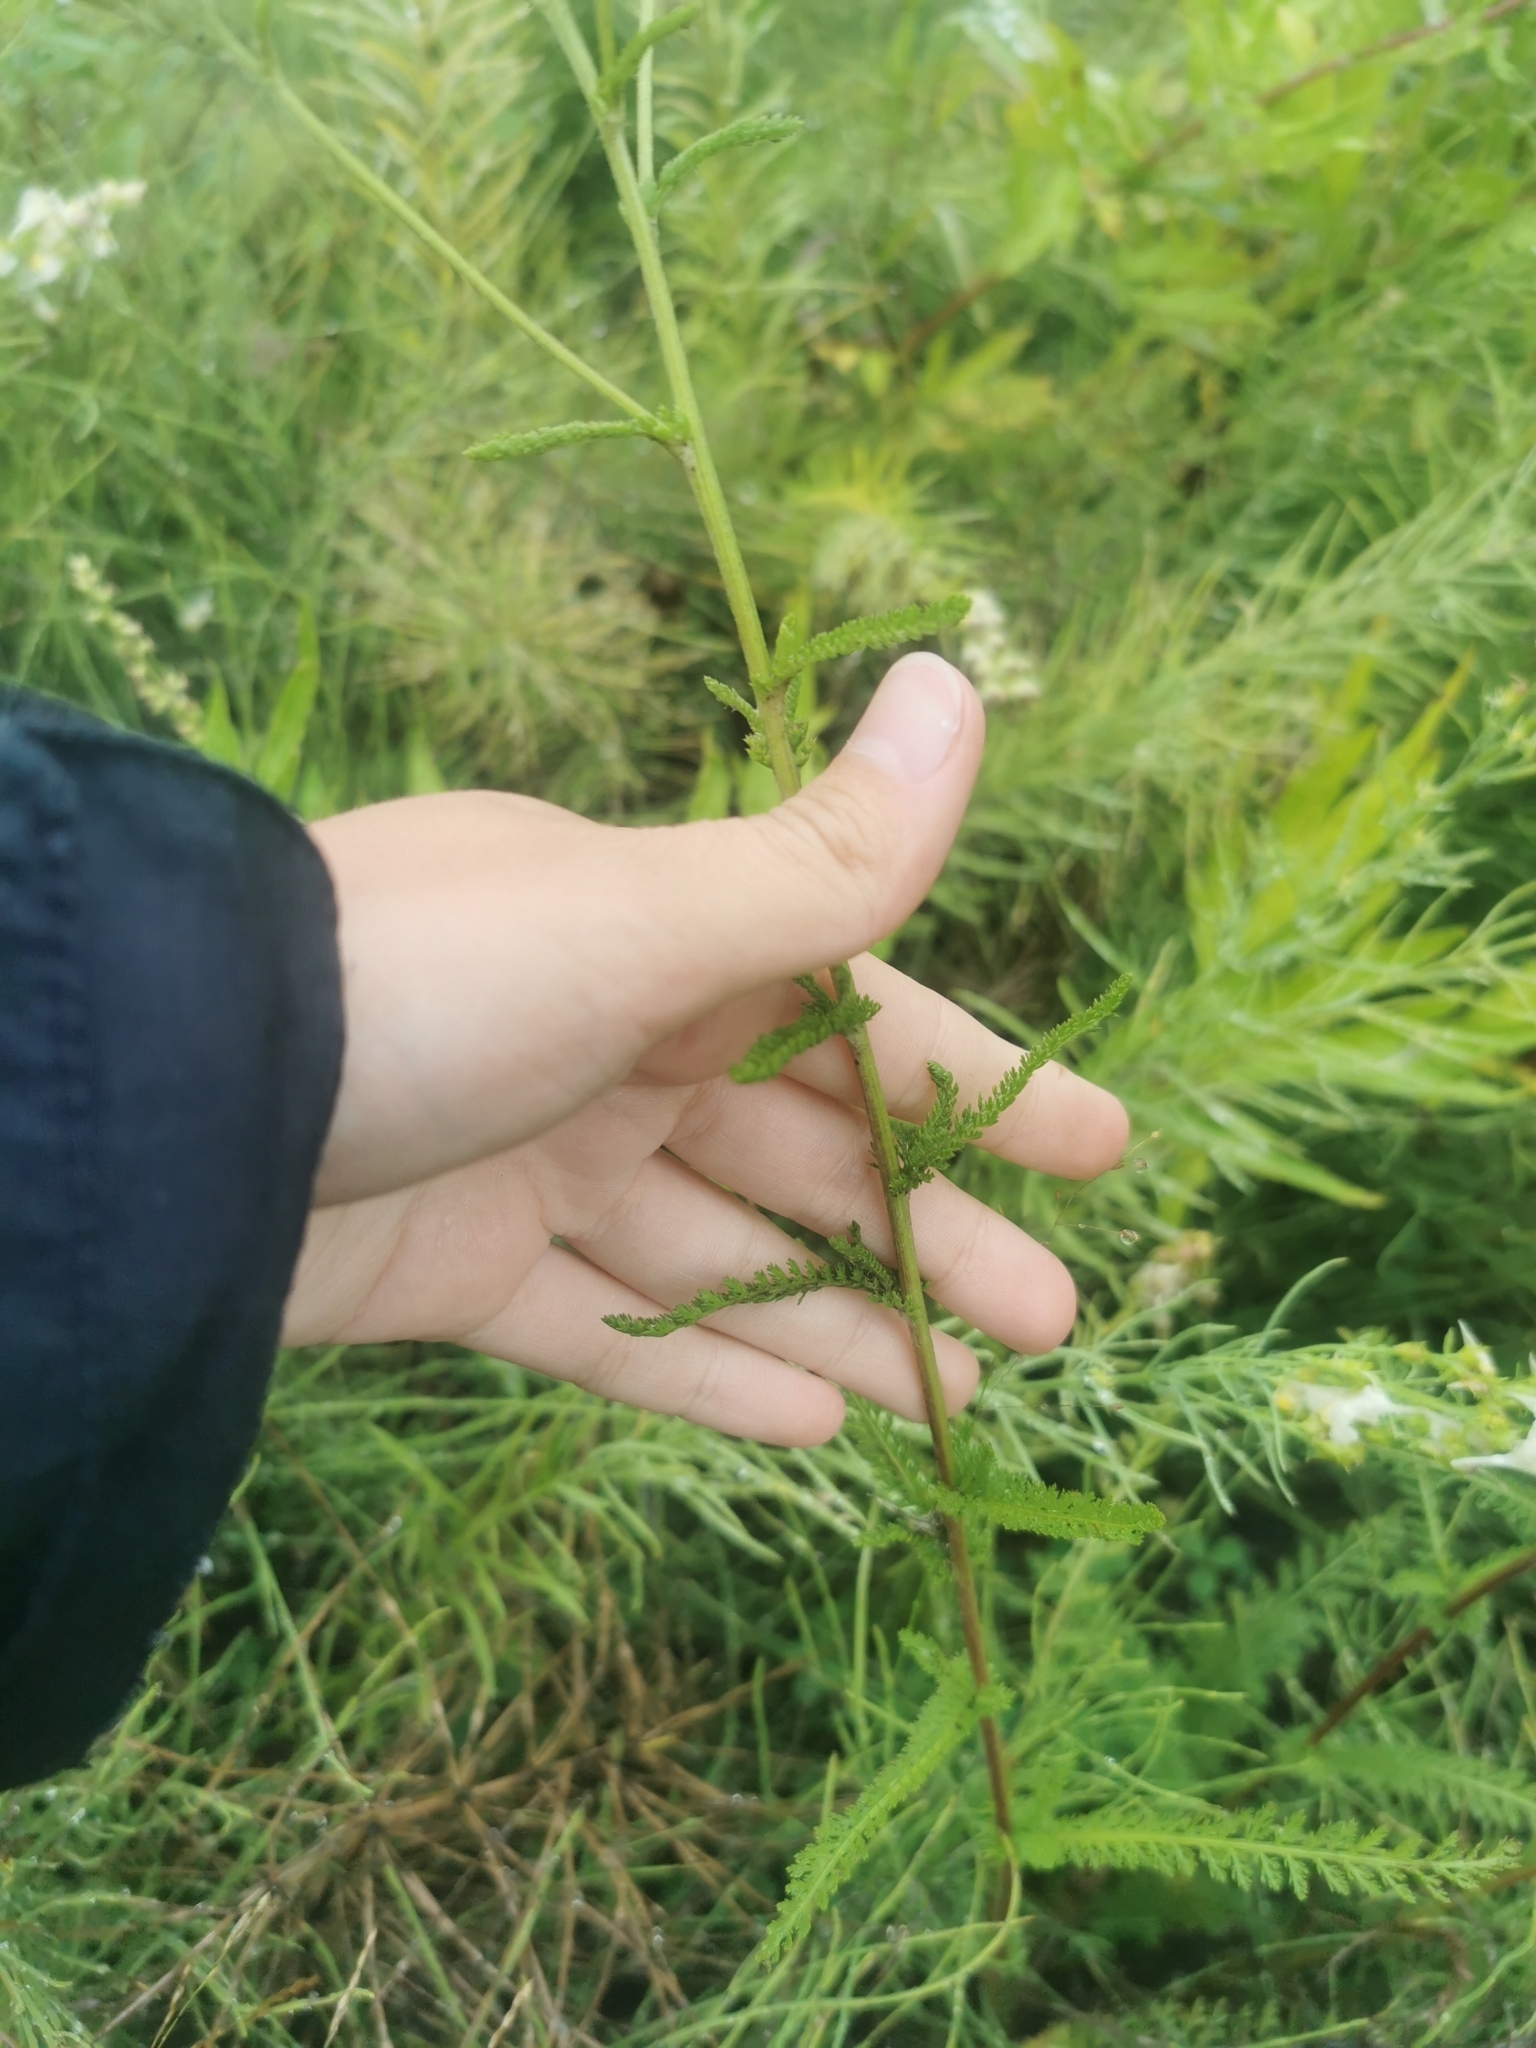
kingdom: Plantae
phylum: Tracheophyta
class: Magnoliopsida
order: Asterales
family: Asteraceae
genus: Achillea
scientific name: Achillea millefolium
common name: Yarrow
